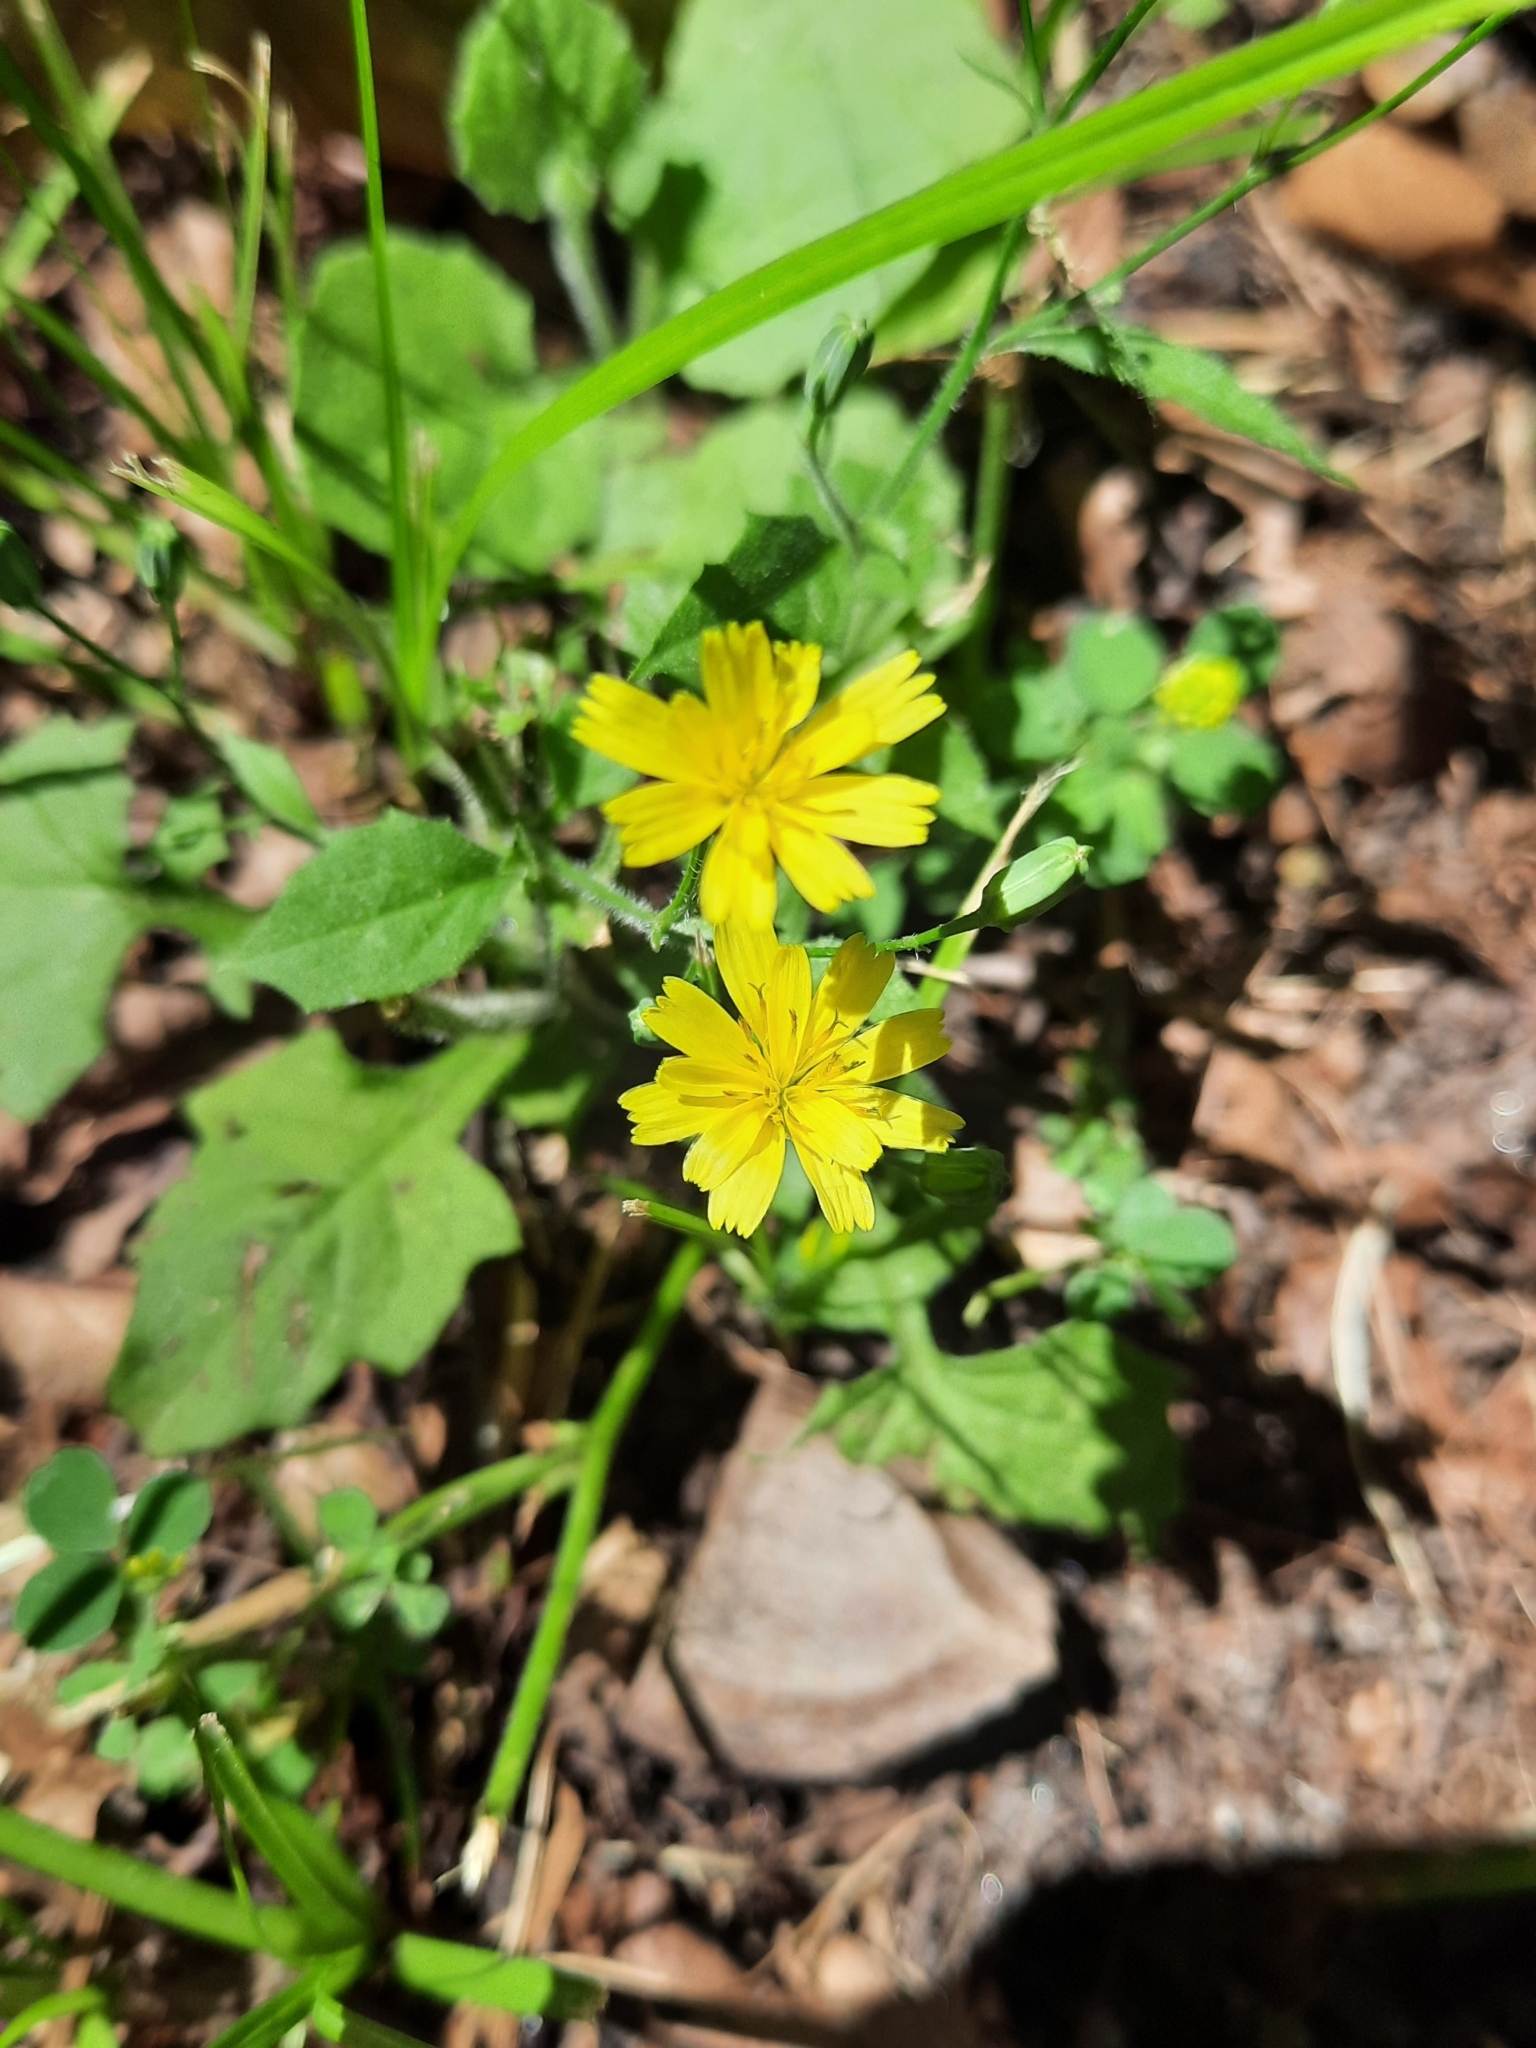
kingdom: Plantae
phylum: Tracheophyta
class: Magnoliopsida
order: Asterales
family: Asteraceae
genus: Lapsana
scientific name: Lapsana communis
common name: Nipplewort
